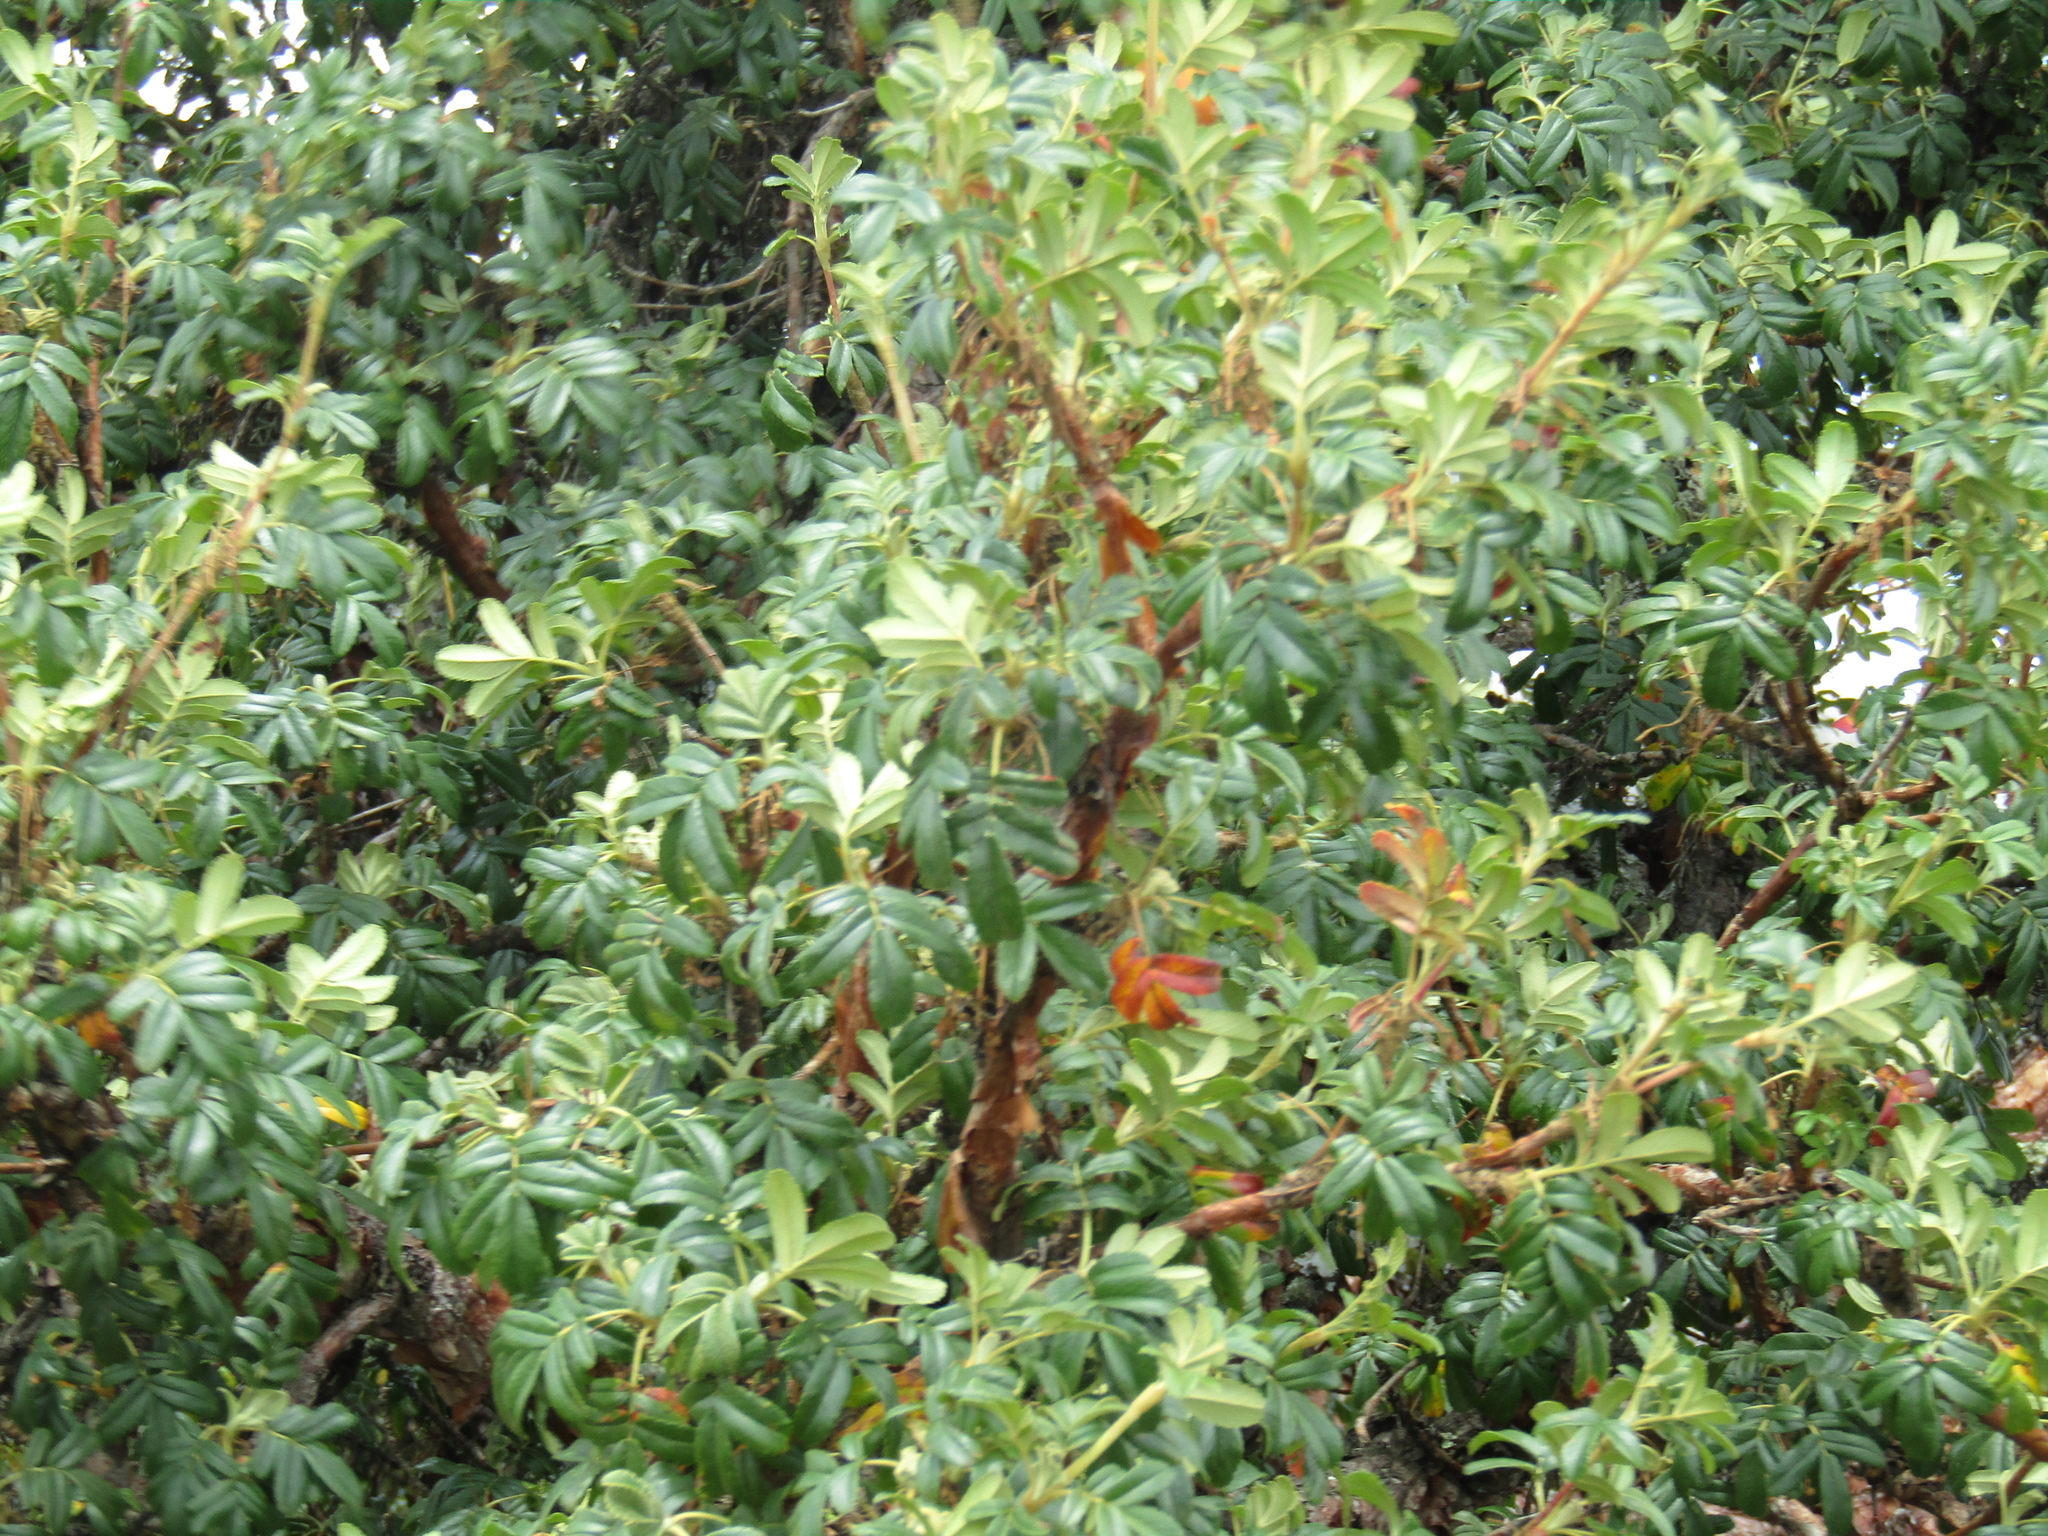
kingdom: Plantae
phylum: Tracheophyta
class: Magnoliopsida
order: Rosales
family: Rosaceae
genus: Polylepis
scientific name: Polylepis australis
